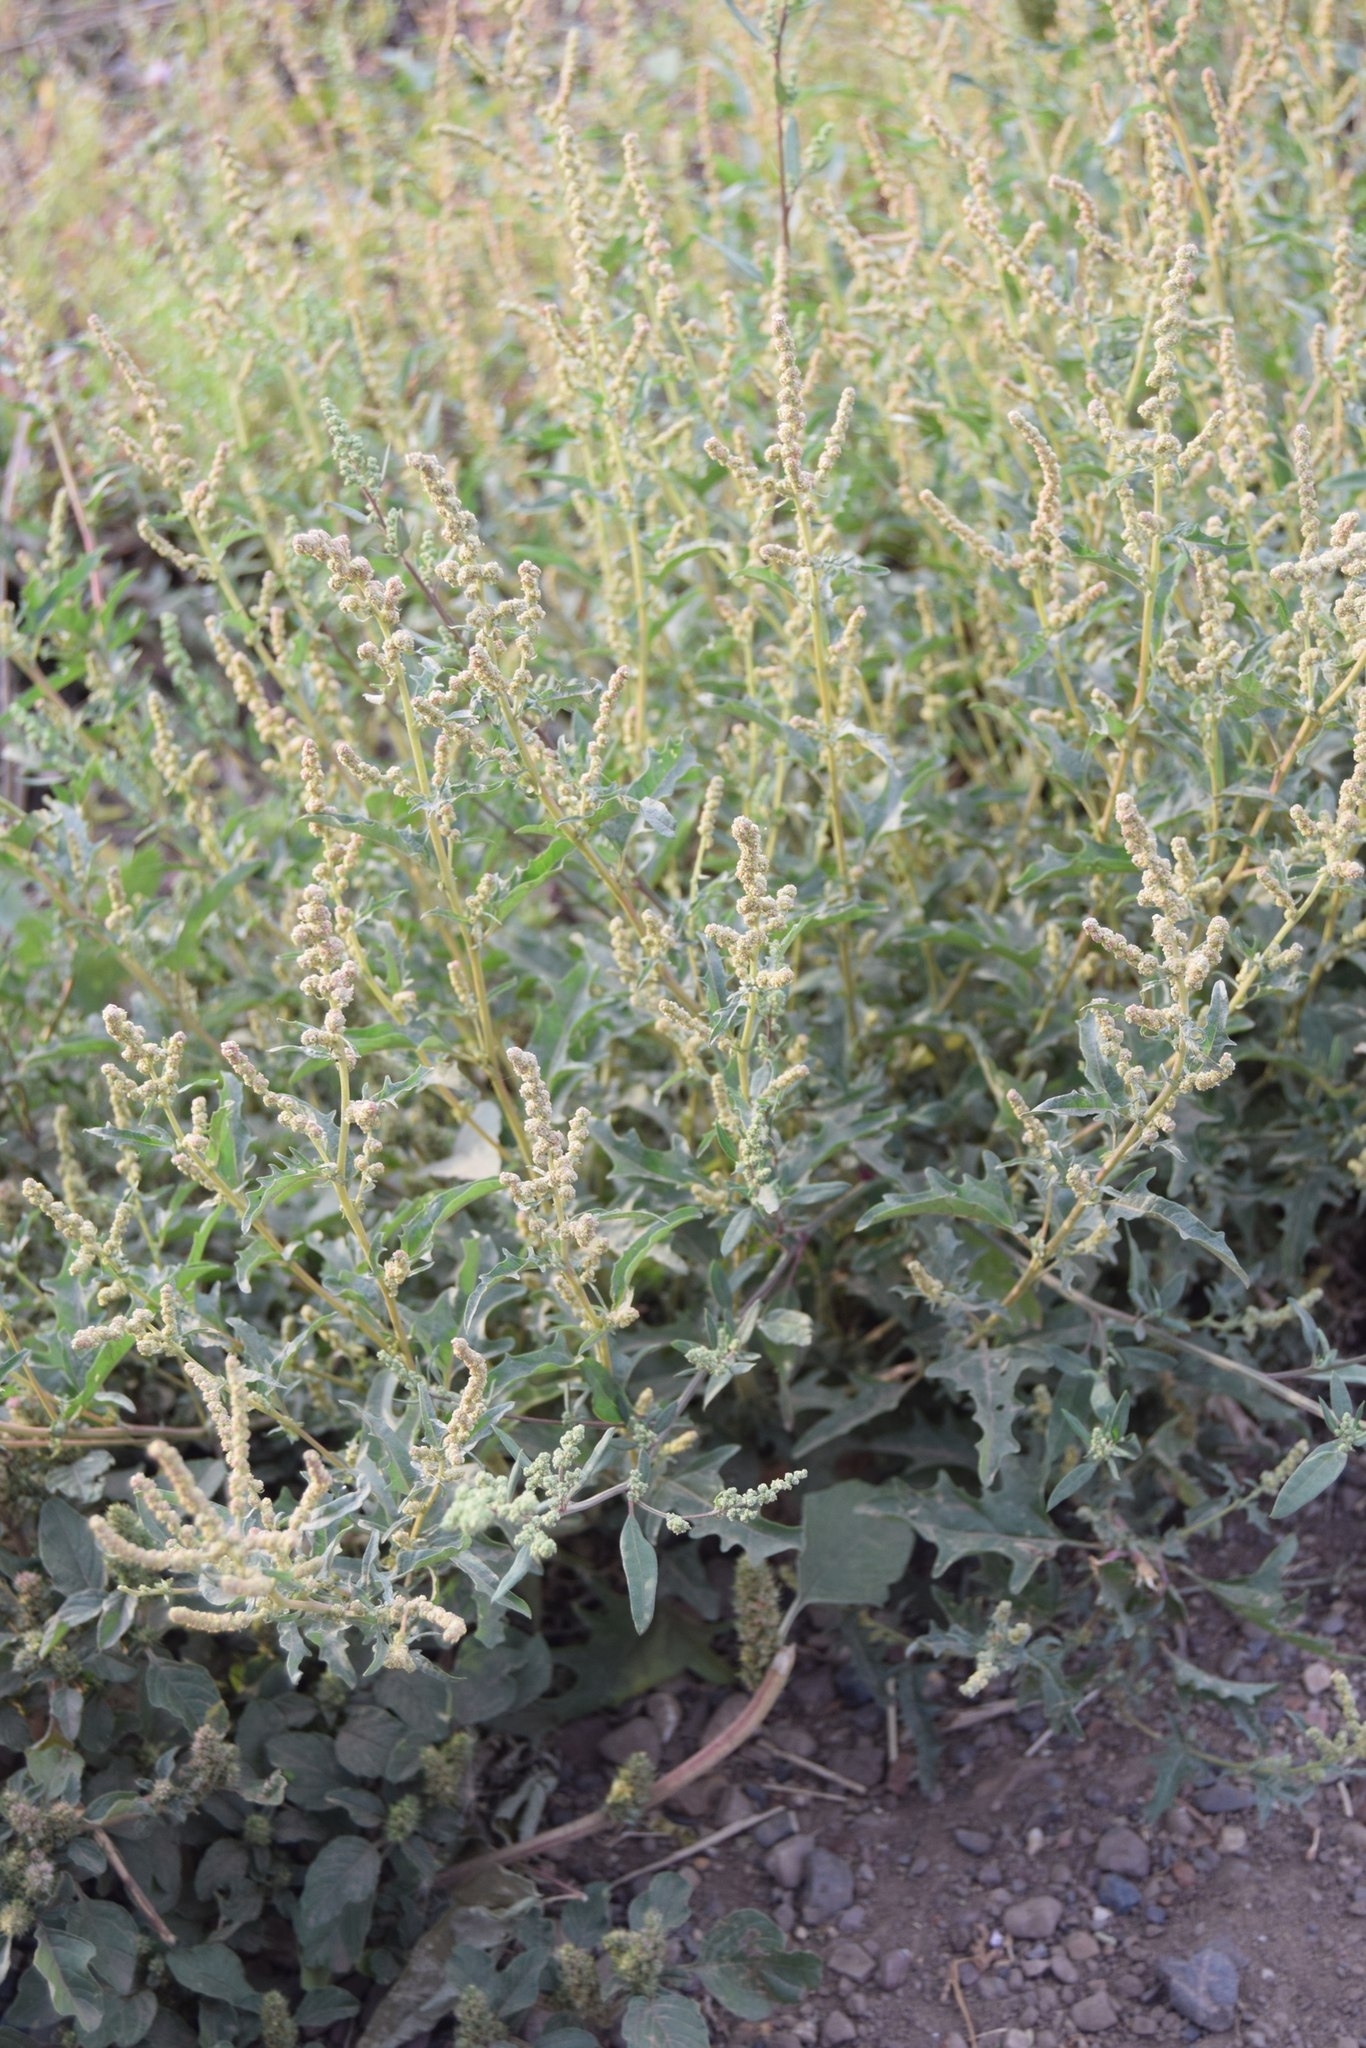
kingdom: Plantae
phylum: Tracheophyta
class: Magnoliopsida
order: Caryophyllales
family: Amaranthaceae
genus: Atriplex
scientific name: Atriplex tatarica
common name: Tatarian orache
